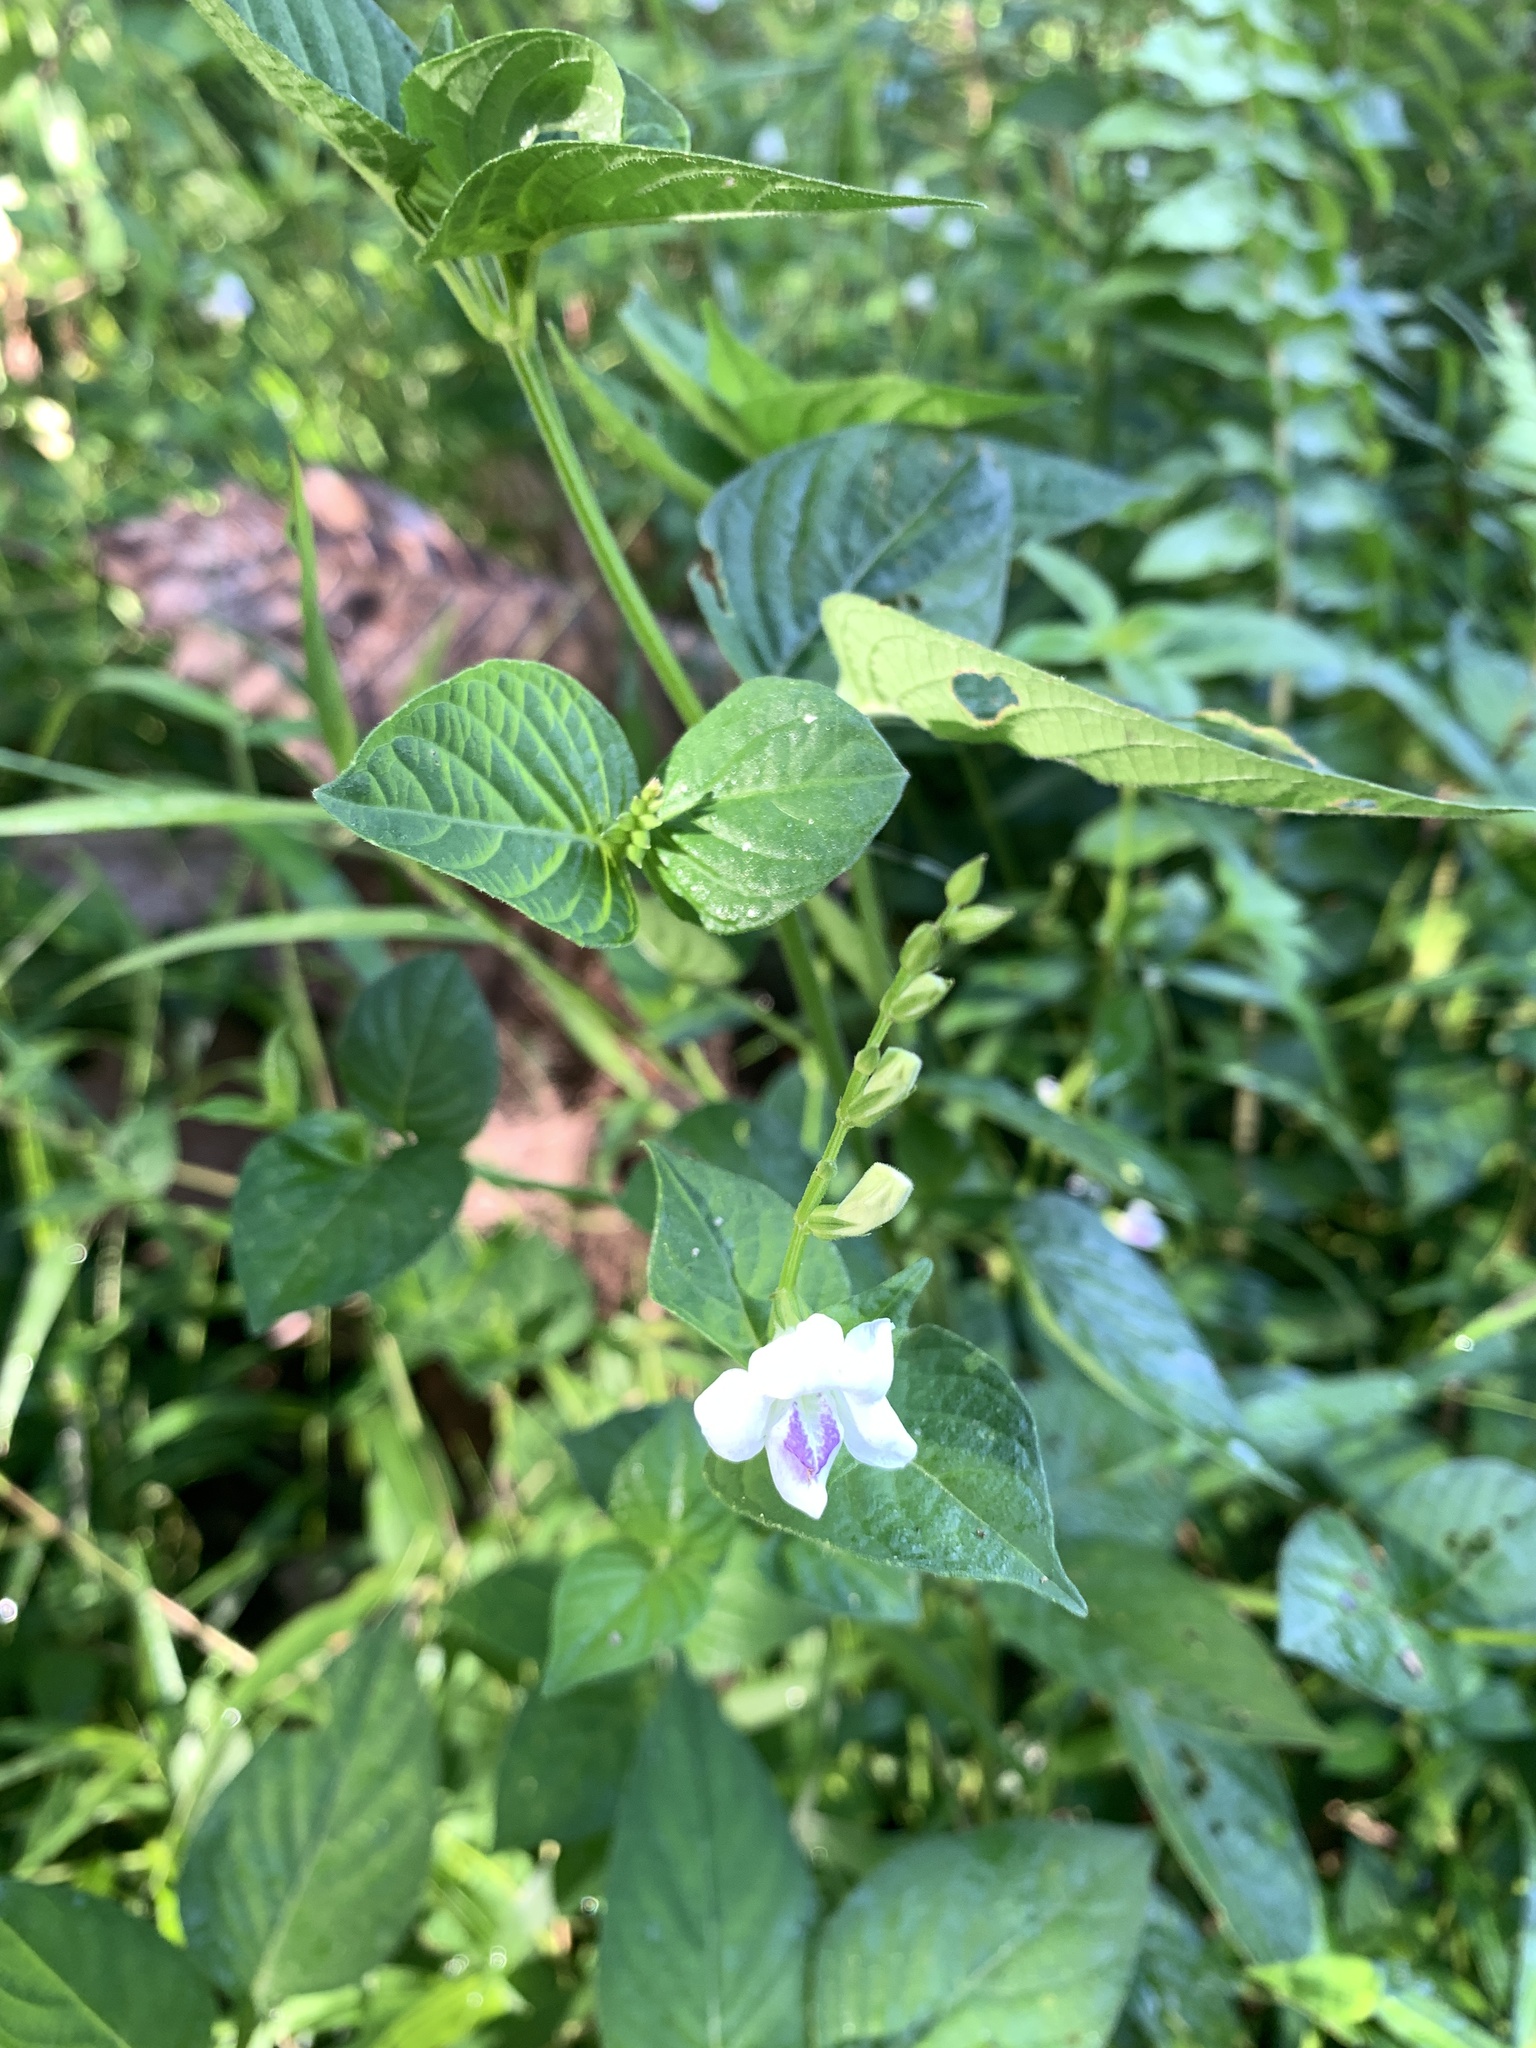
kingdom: Plantae
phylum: Tracheophyta
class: Magnoliopsida
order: Lamiales
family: Acanthaceae
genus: Asystasia
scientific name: Asystasia intrusa
